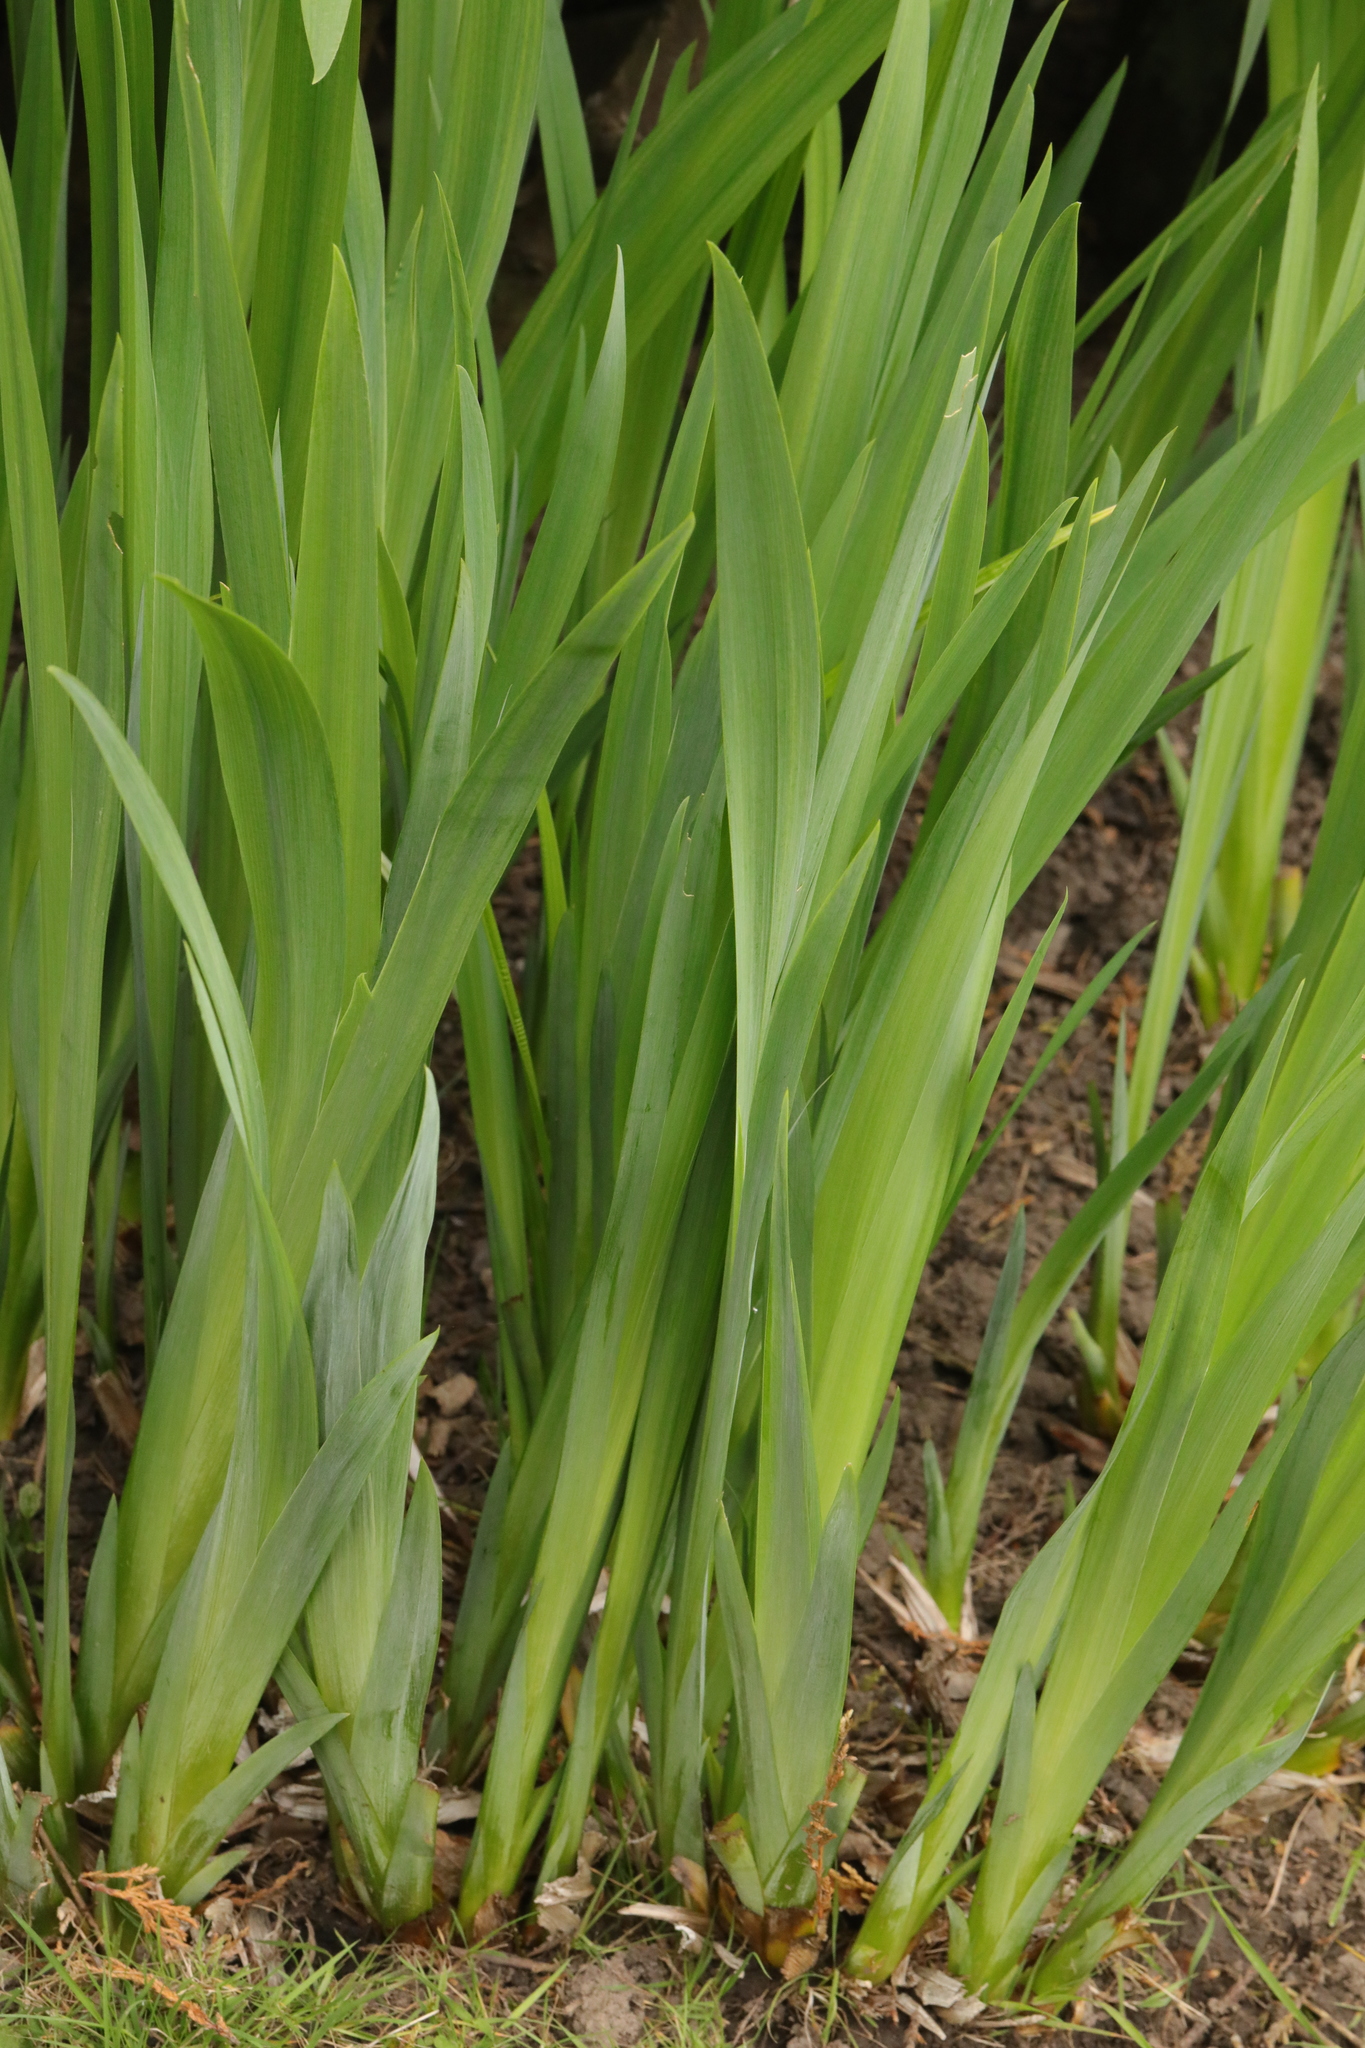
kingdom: Plantae
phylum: Tracheophyta
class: Liliopsida
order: Asparagales
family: Iridaceae
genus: Iris
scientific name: Iris pseudacorus
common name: Yellow flag
